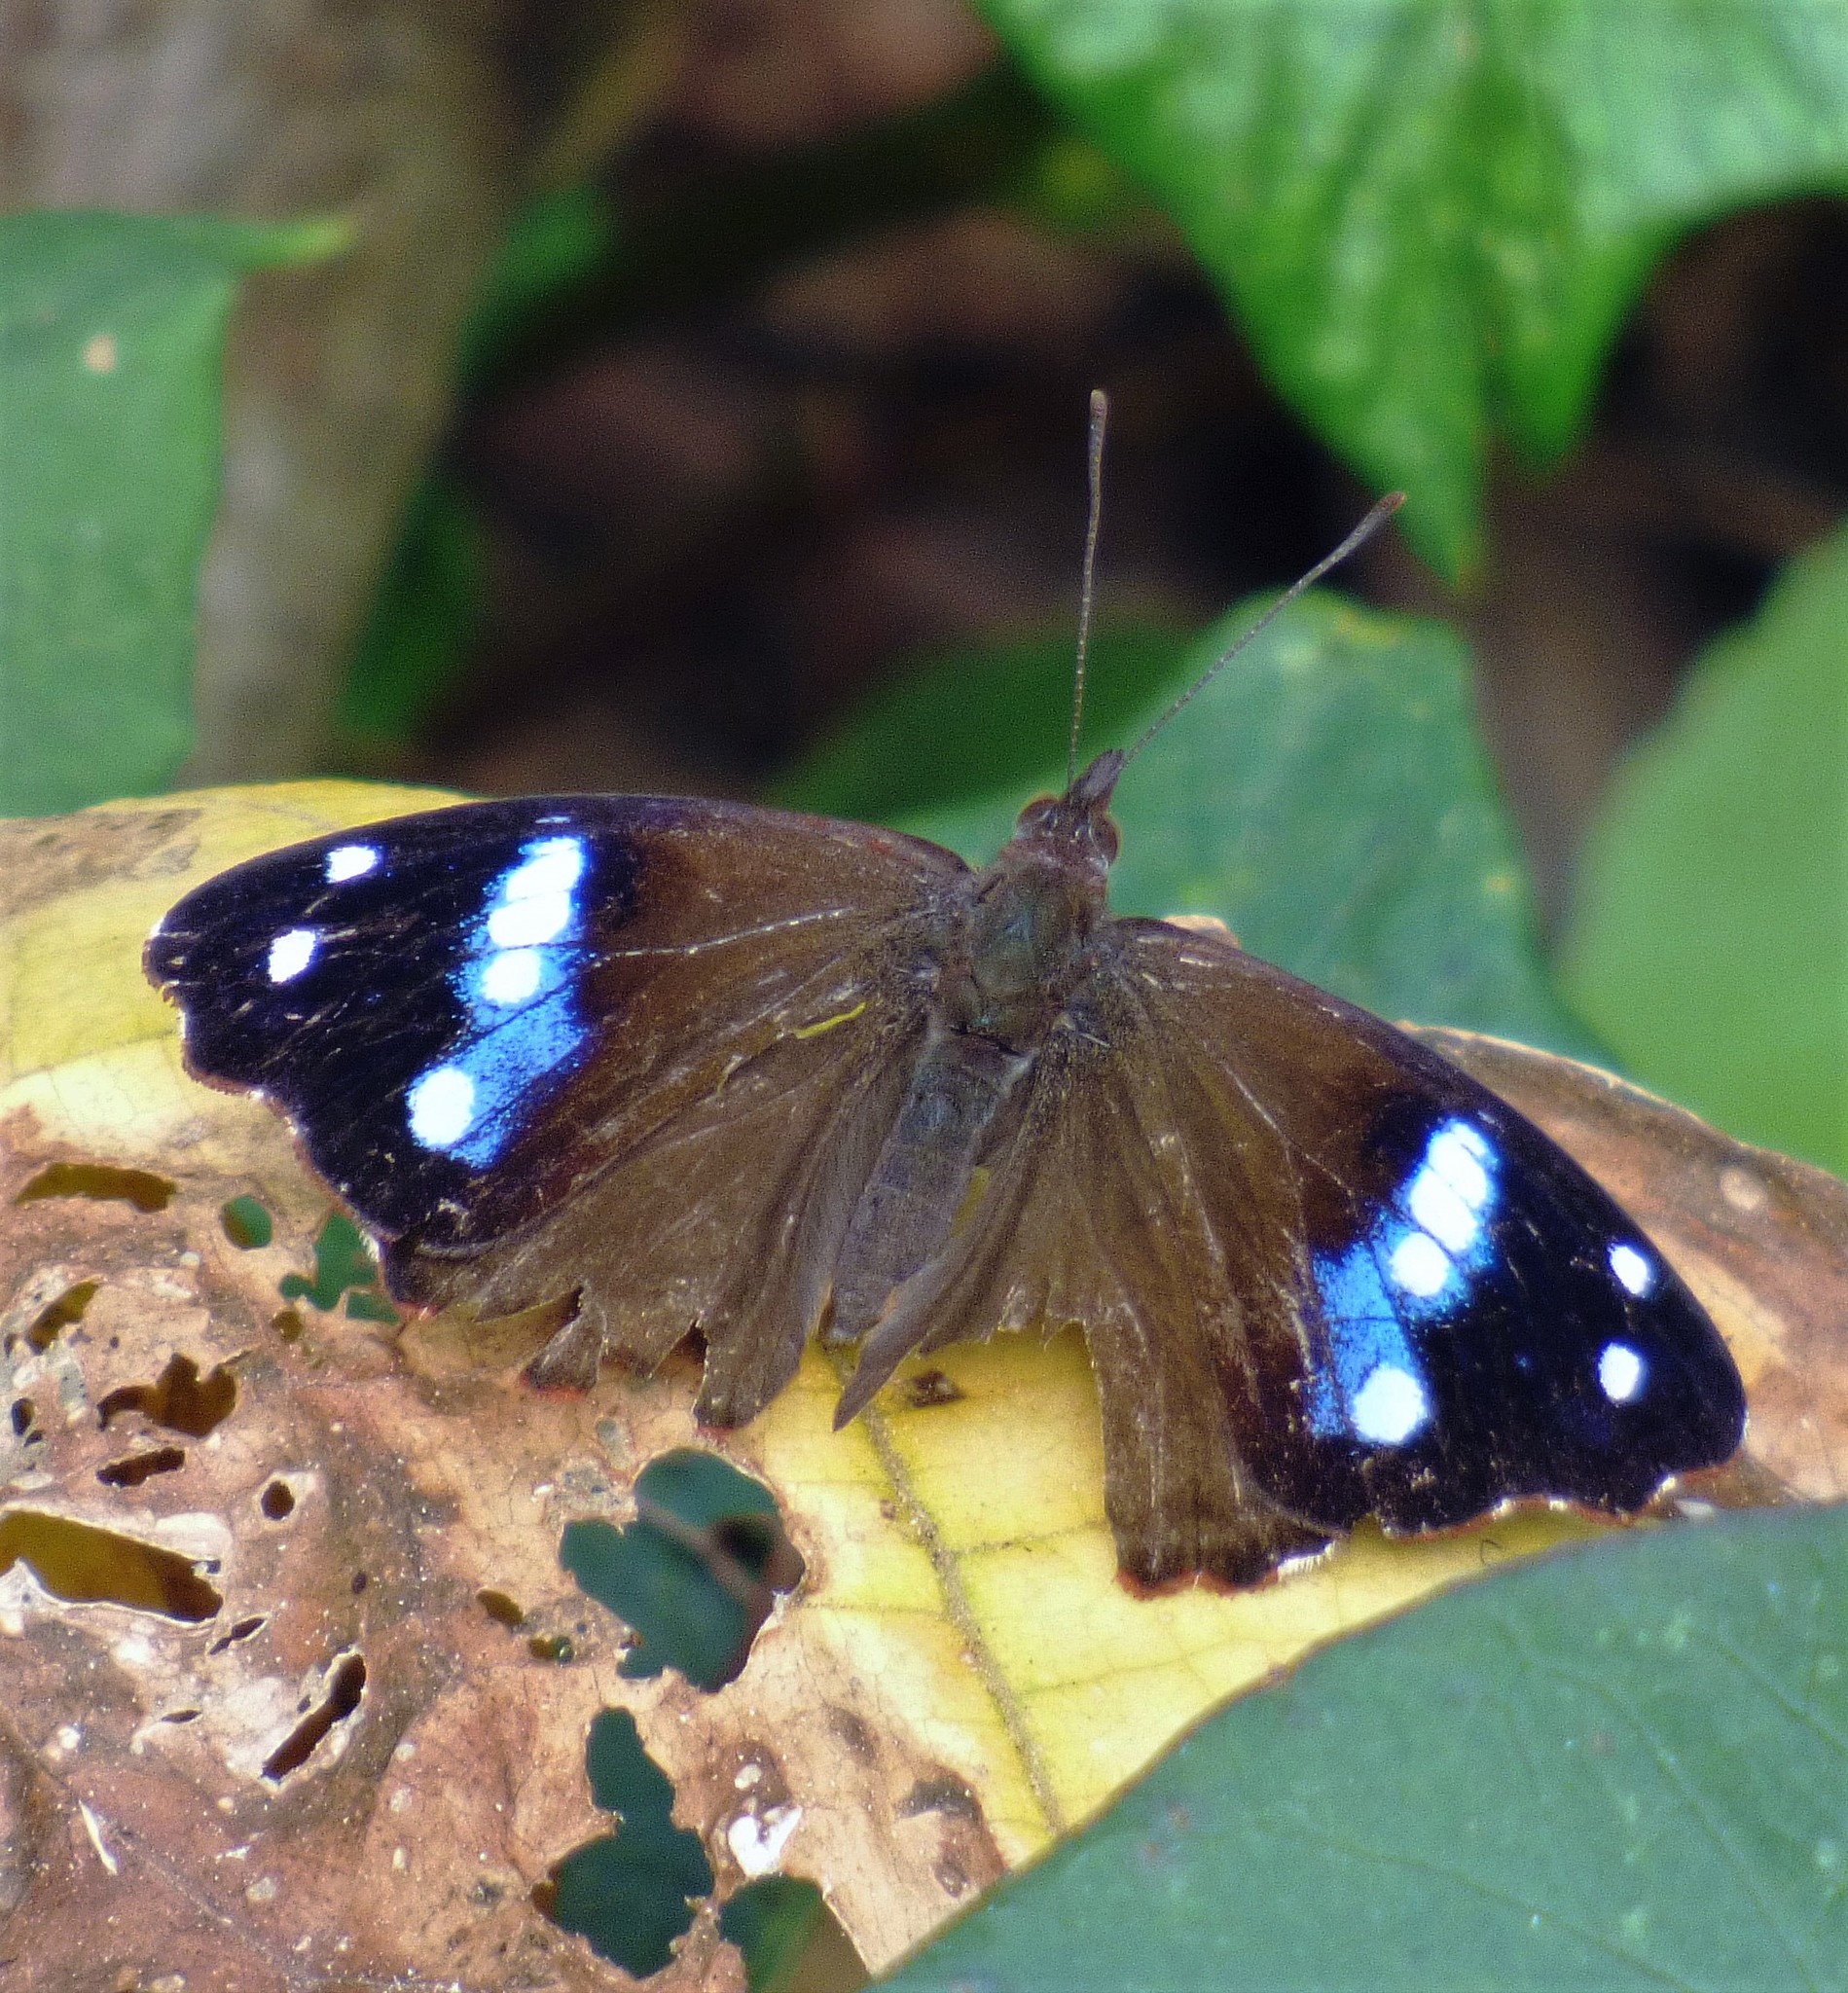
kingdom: Animalia
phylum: Arthropoda
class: Insecta
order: Lepidoptera
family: Nymphalidae
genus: Cybdelis
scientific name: Cybdelis phaesyla
